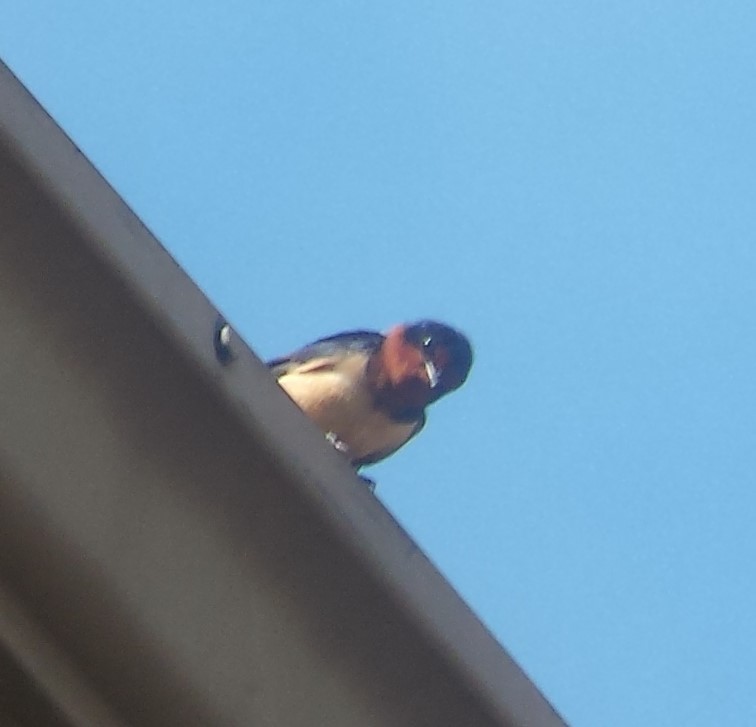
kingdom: Animalia
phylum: Chordata
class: Aves
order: Passeriformes
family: Hirundinidae
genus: Hirundo
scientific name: Hirundo rustica
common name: Barn swallow
